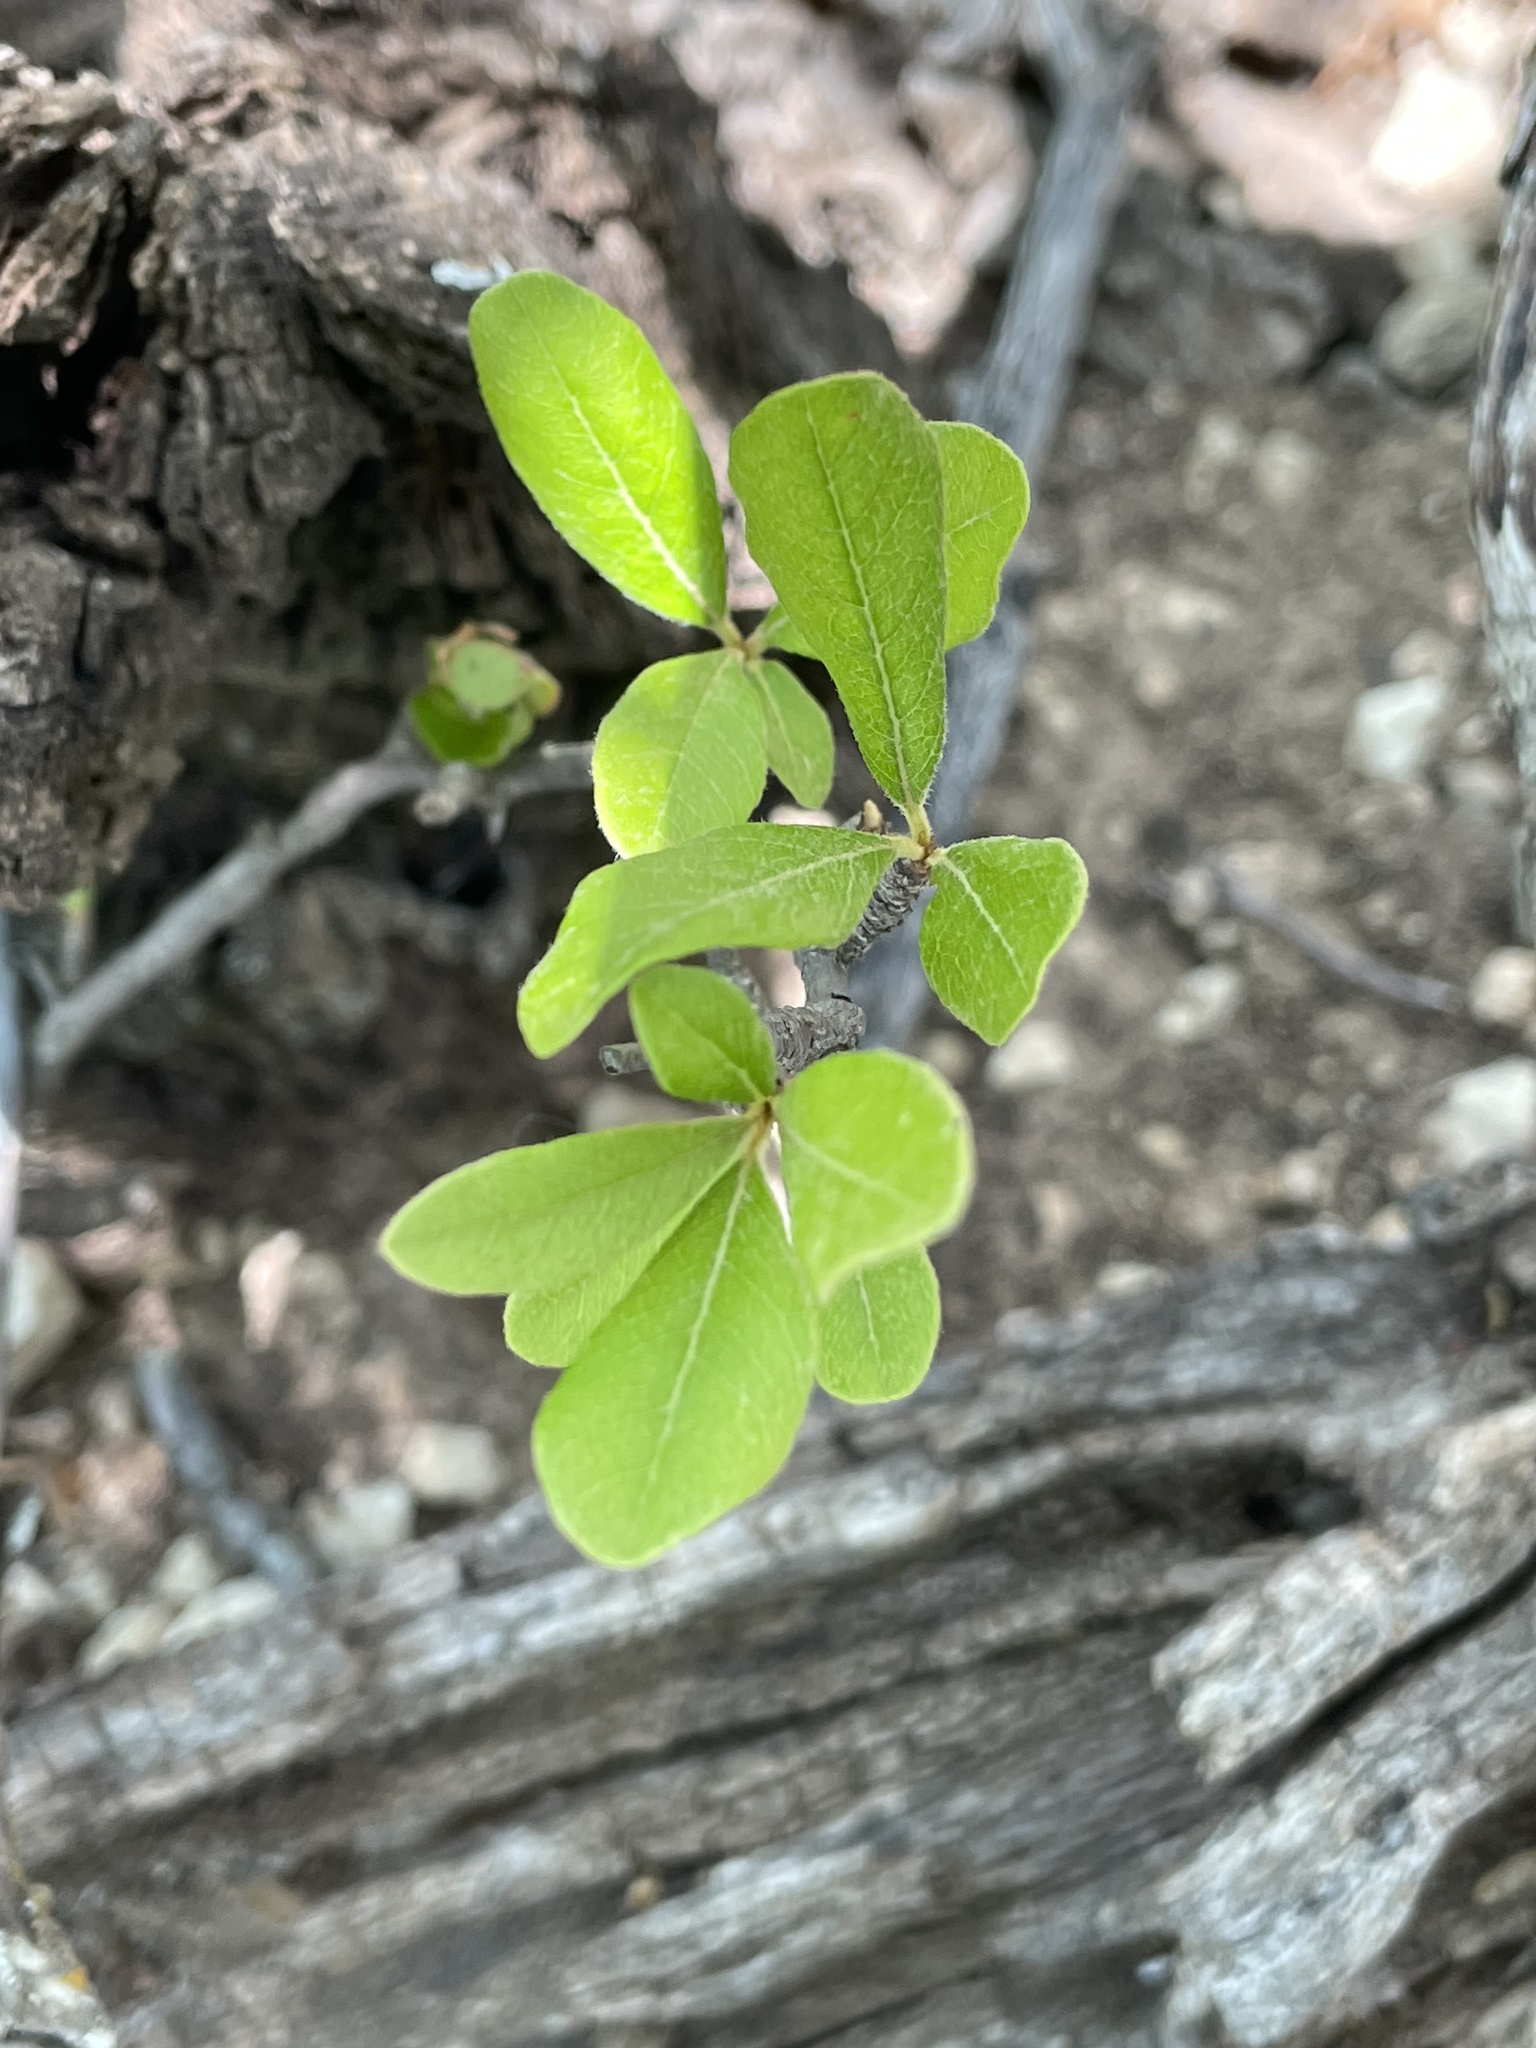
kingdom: Plantae
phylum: Tracheophyta
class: Magnoliopsida
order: Ericales
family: Sapotaceae
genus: Sideroxylon
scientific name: Sideroxylon lanuginosum
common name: Chittamwood
